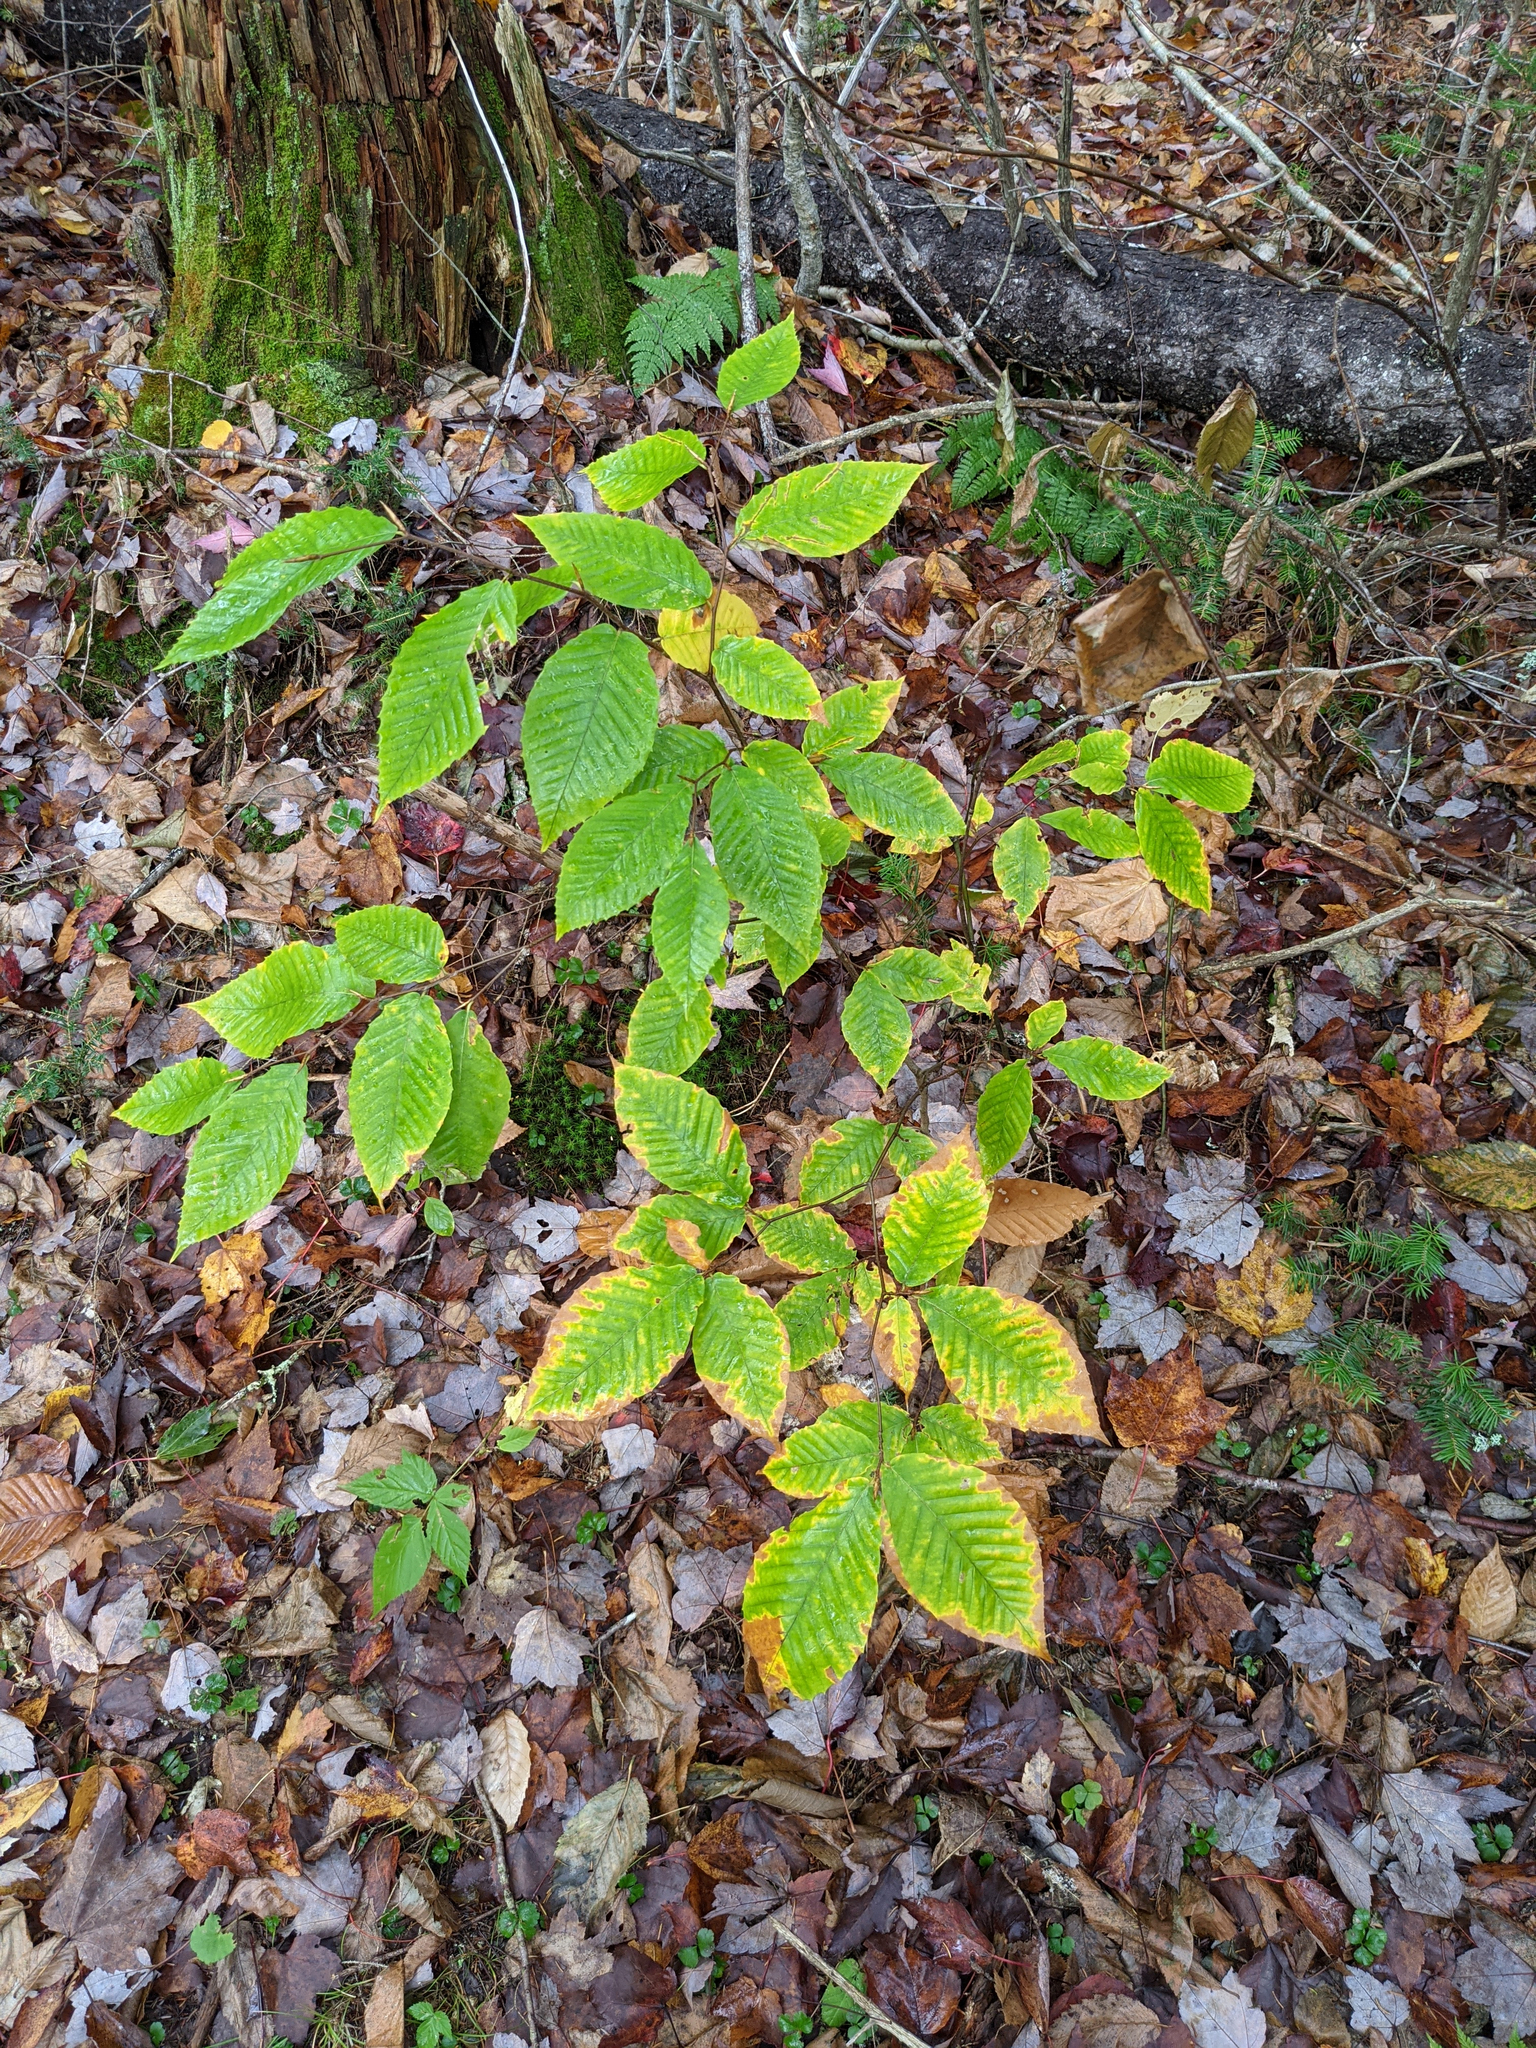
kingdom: Plantae
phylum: Tracheophyta
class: Magnoliopsida
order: Fagales
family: Fagaceae
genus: Fagus
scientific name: Fagus grandifolia
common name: American beech
